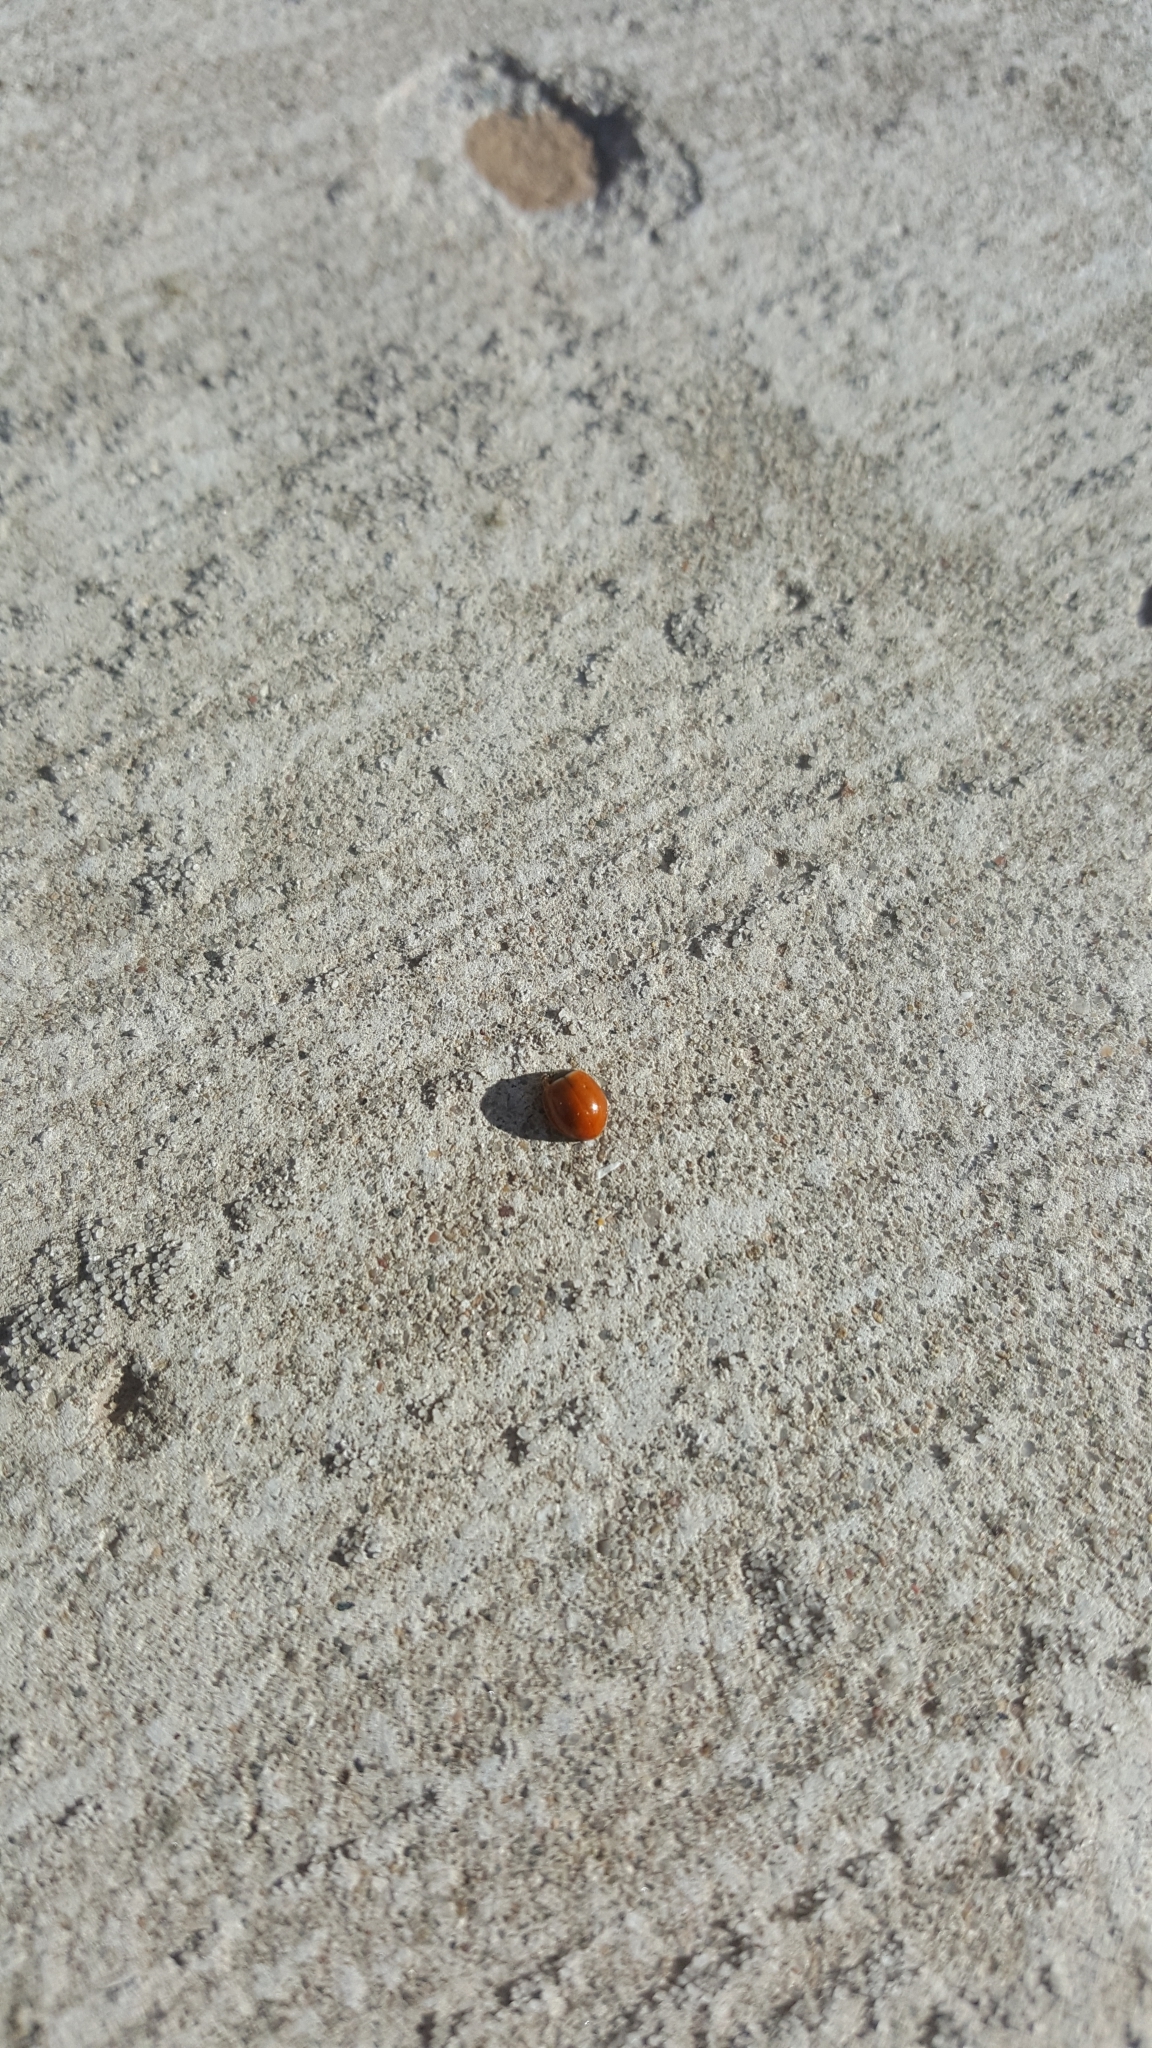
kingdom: Animalia
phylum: Arthropoda
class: Insecta
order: Coleoptera
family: Coccinellidae
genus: Cycloneda
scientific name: Cycloneda munda
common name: Polished lady beetle
